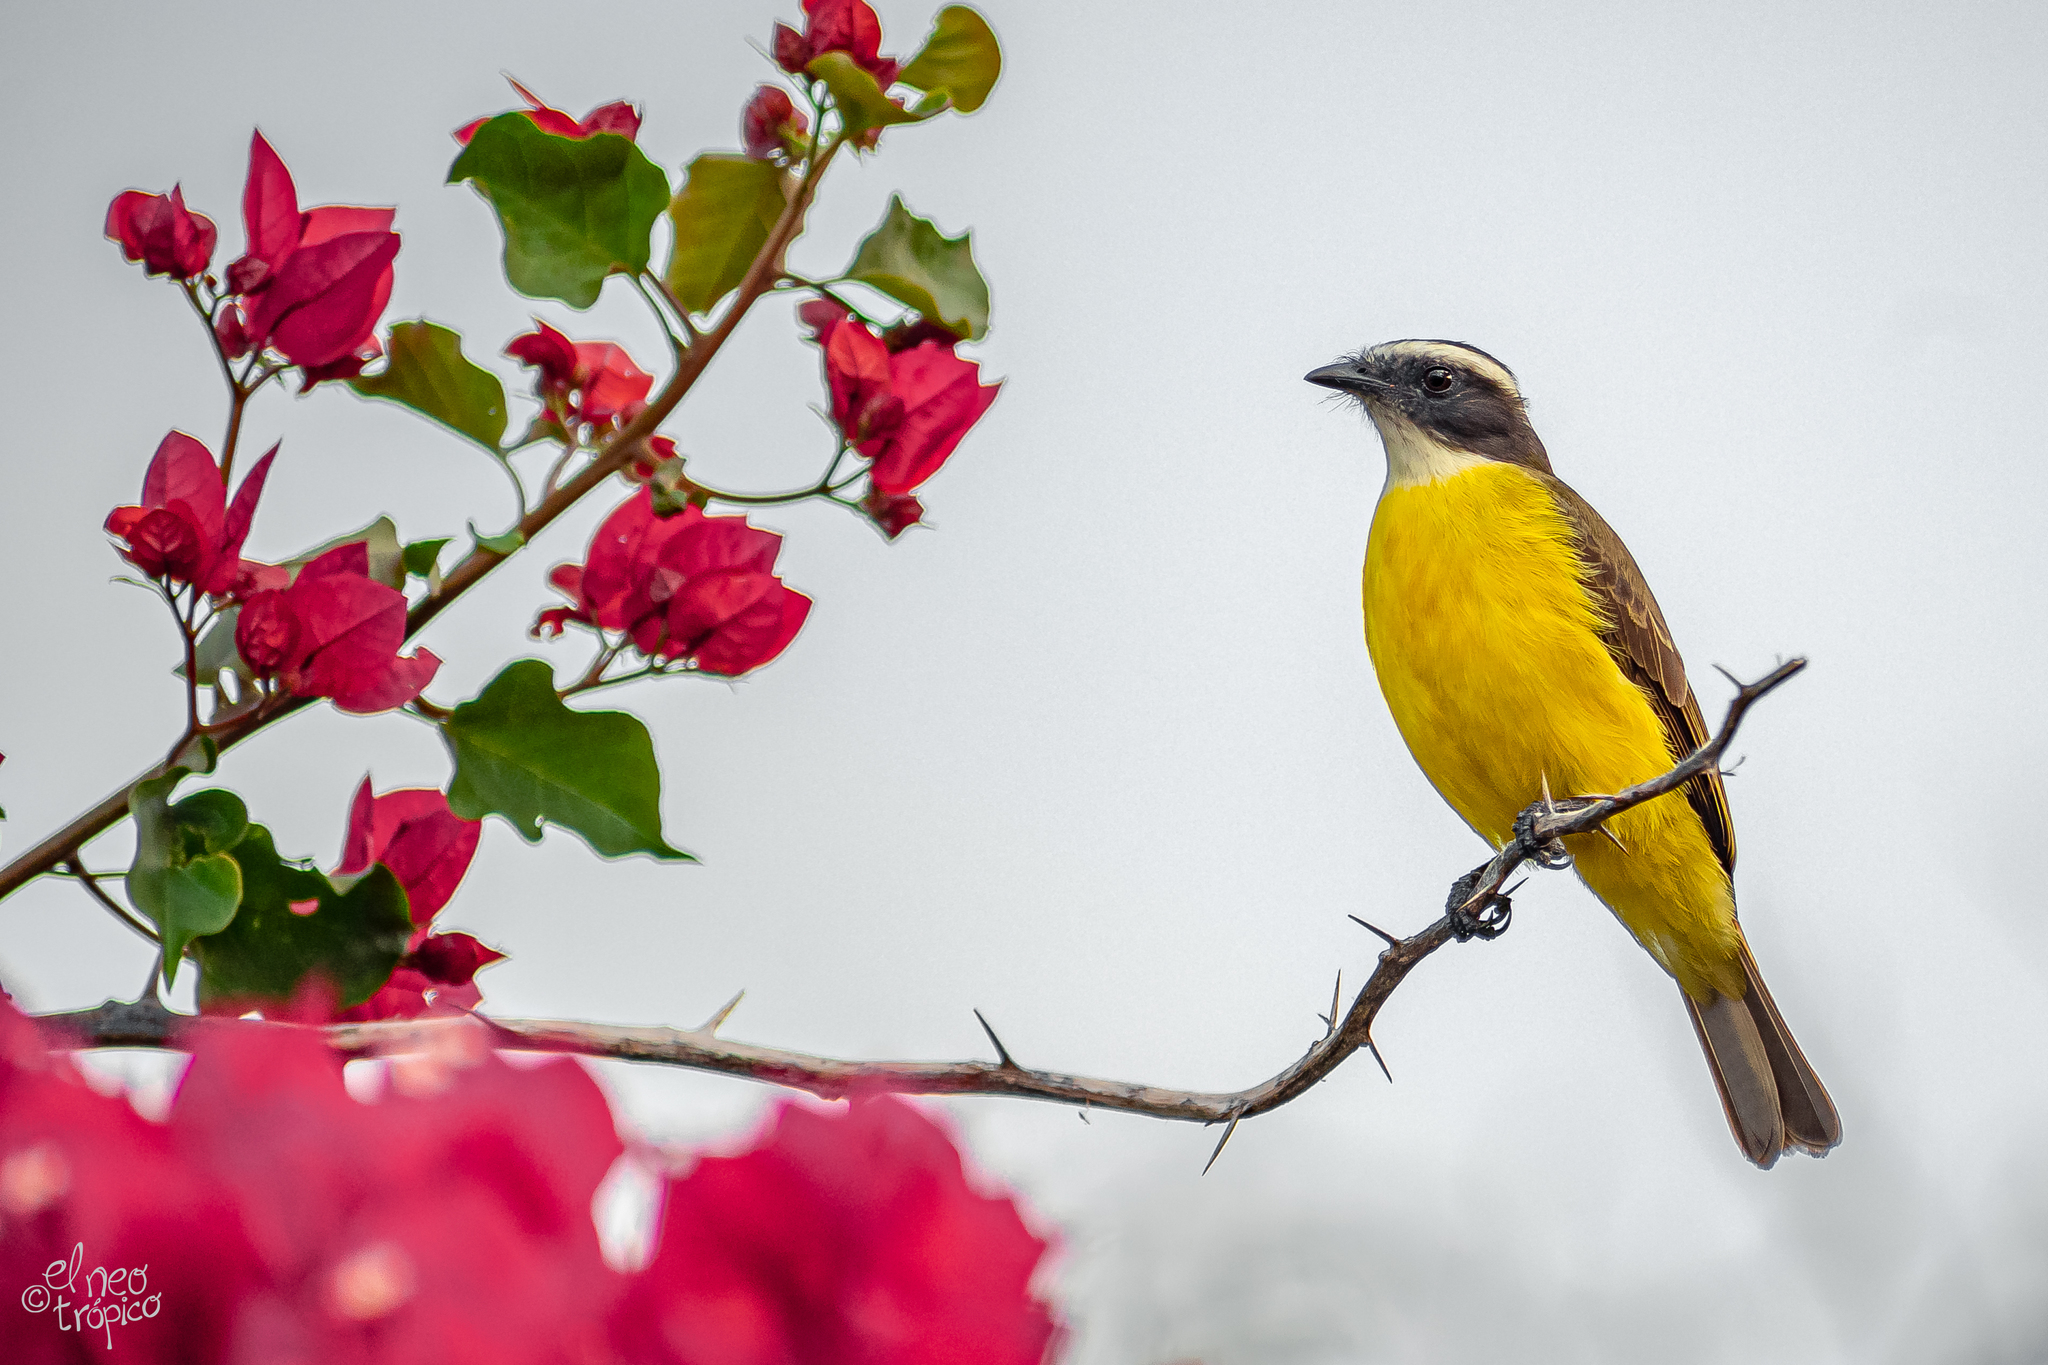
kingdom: Animalia
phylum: Chordata
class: Aves
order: Passeriformes
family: Tyrannidae
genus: Myiozetetes
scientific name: Myiozetetes similis
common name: Social flycatcher
